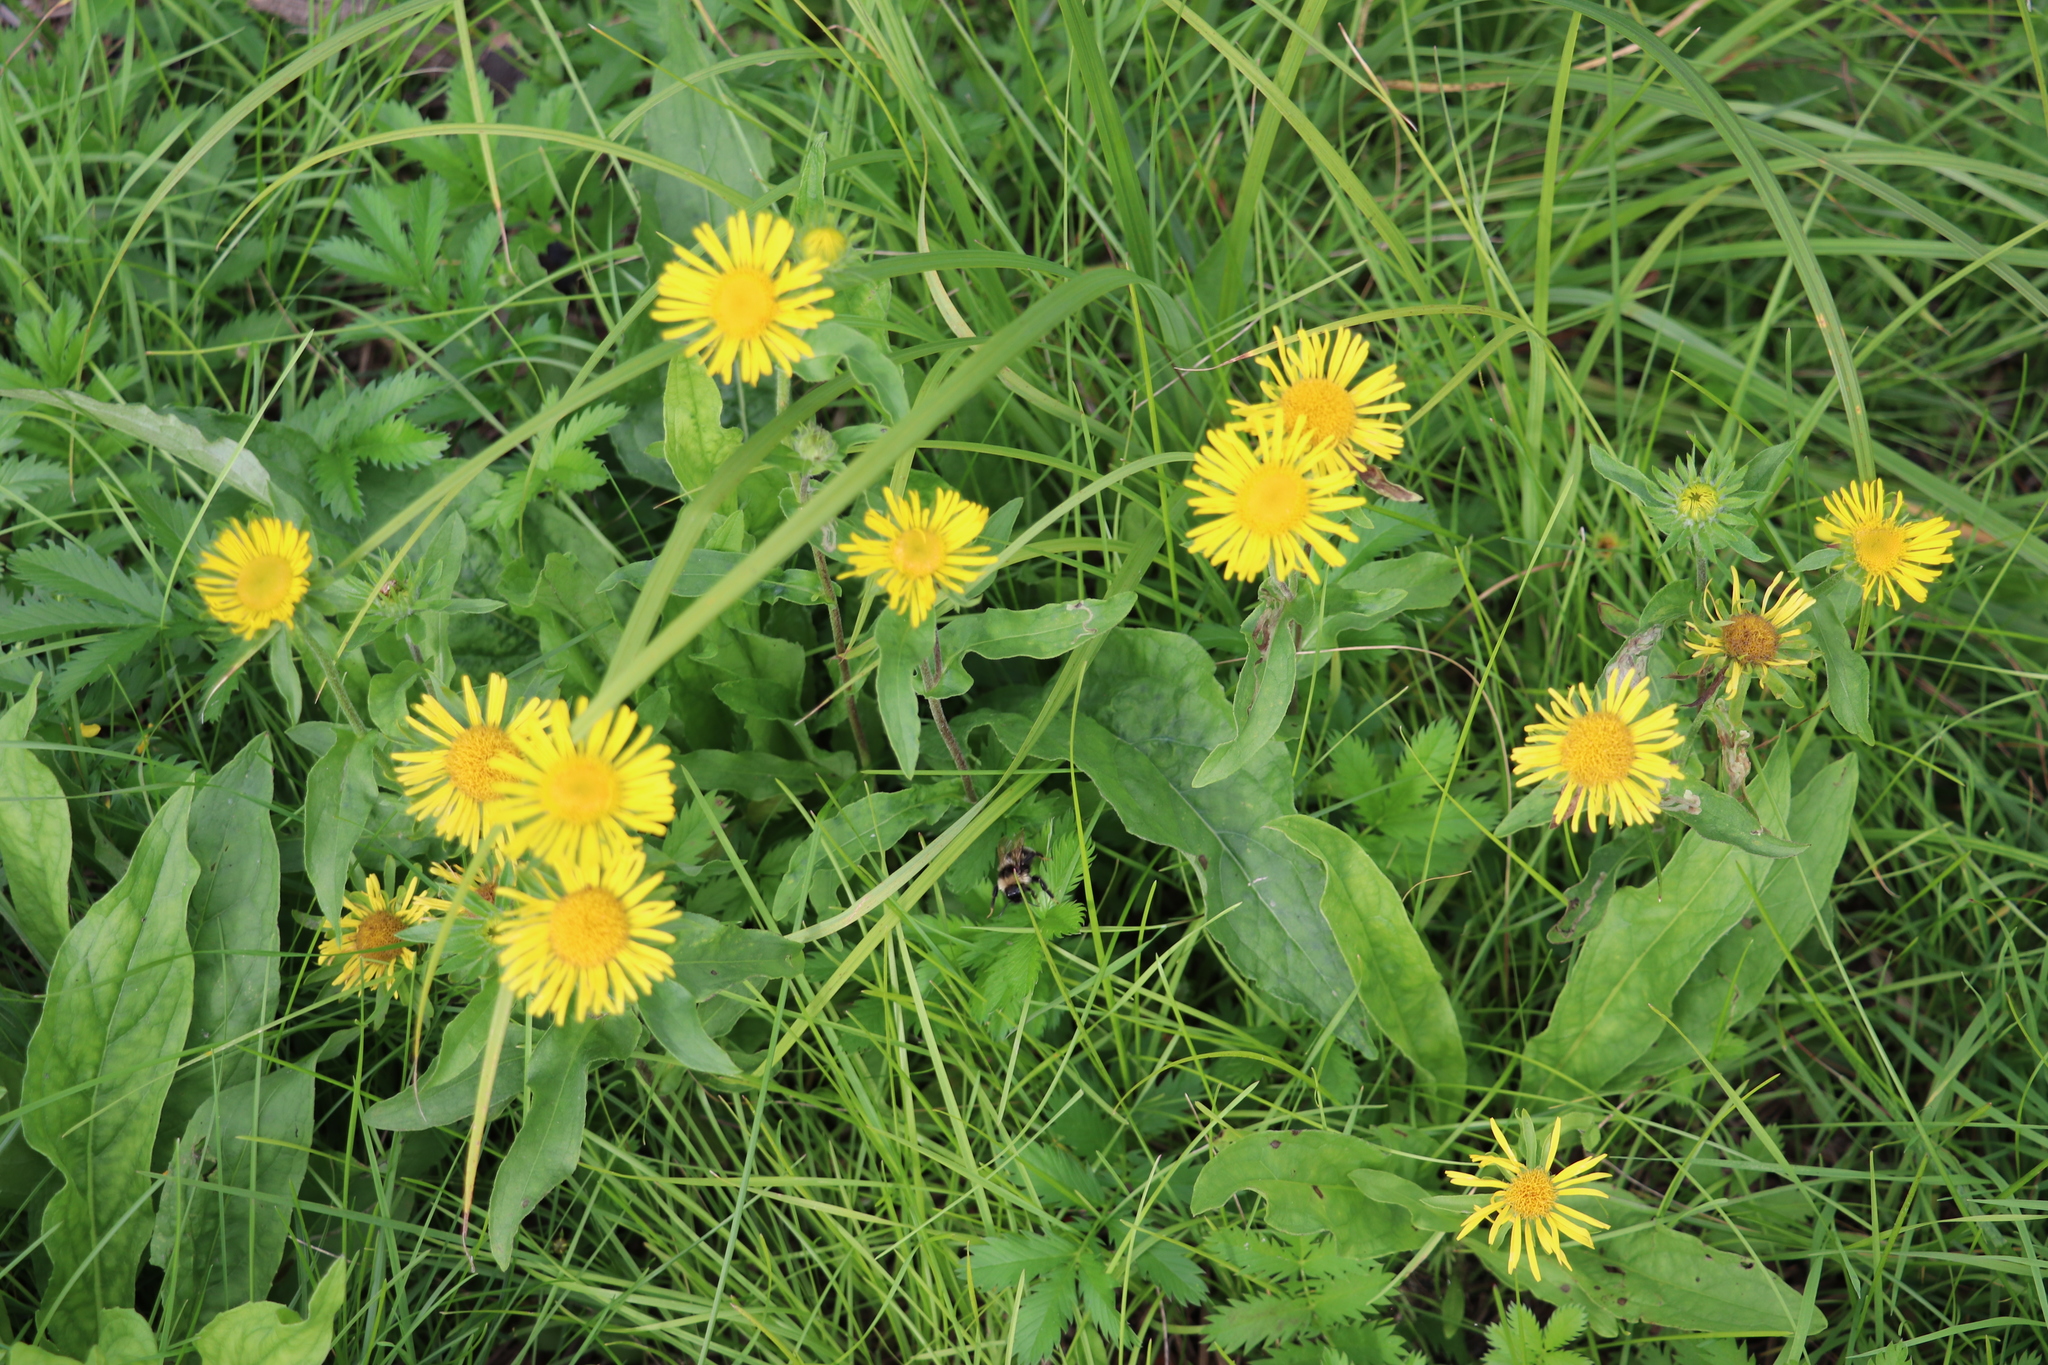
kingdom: Plantae
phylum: Tracheophyta
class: Magnoliopsida
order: Asterales
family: Asteraceae
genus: Pentanema
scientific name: Pentanema britannicum
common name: British elecampane
